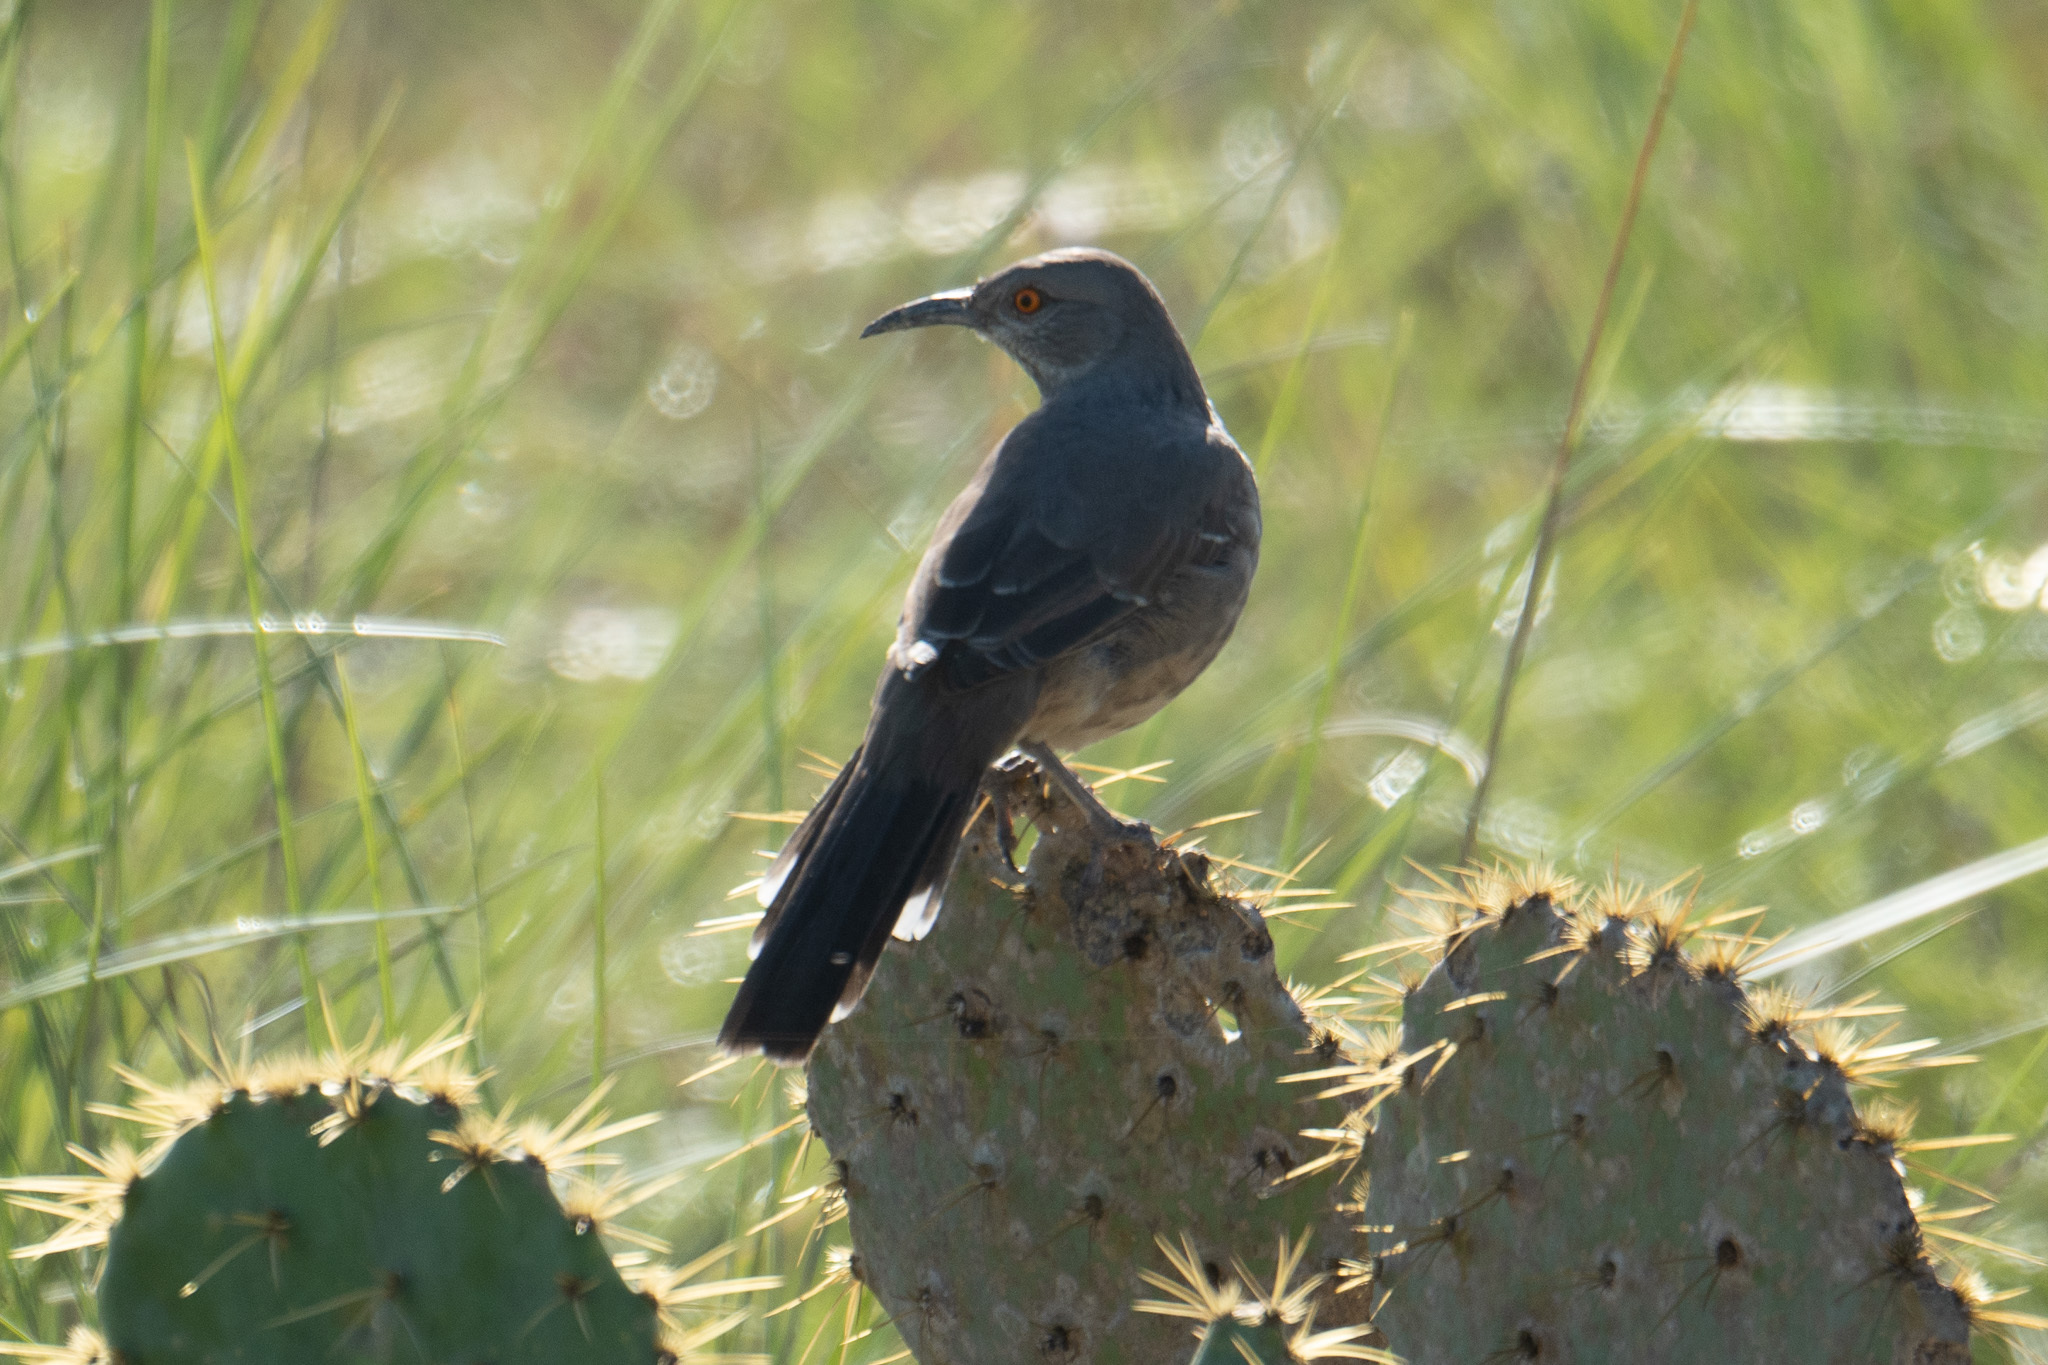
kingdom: Animalia
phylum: Chordata
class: Aves
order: Passeriformes
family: Mimidae
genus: Toxostoma
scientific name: Toxostoma curvirostre
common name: Curve-billed thrasher
